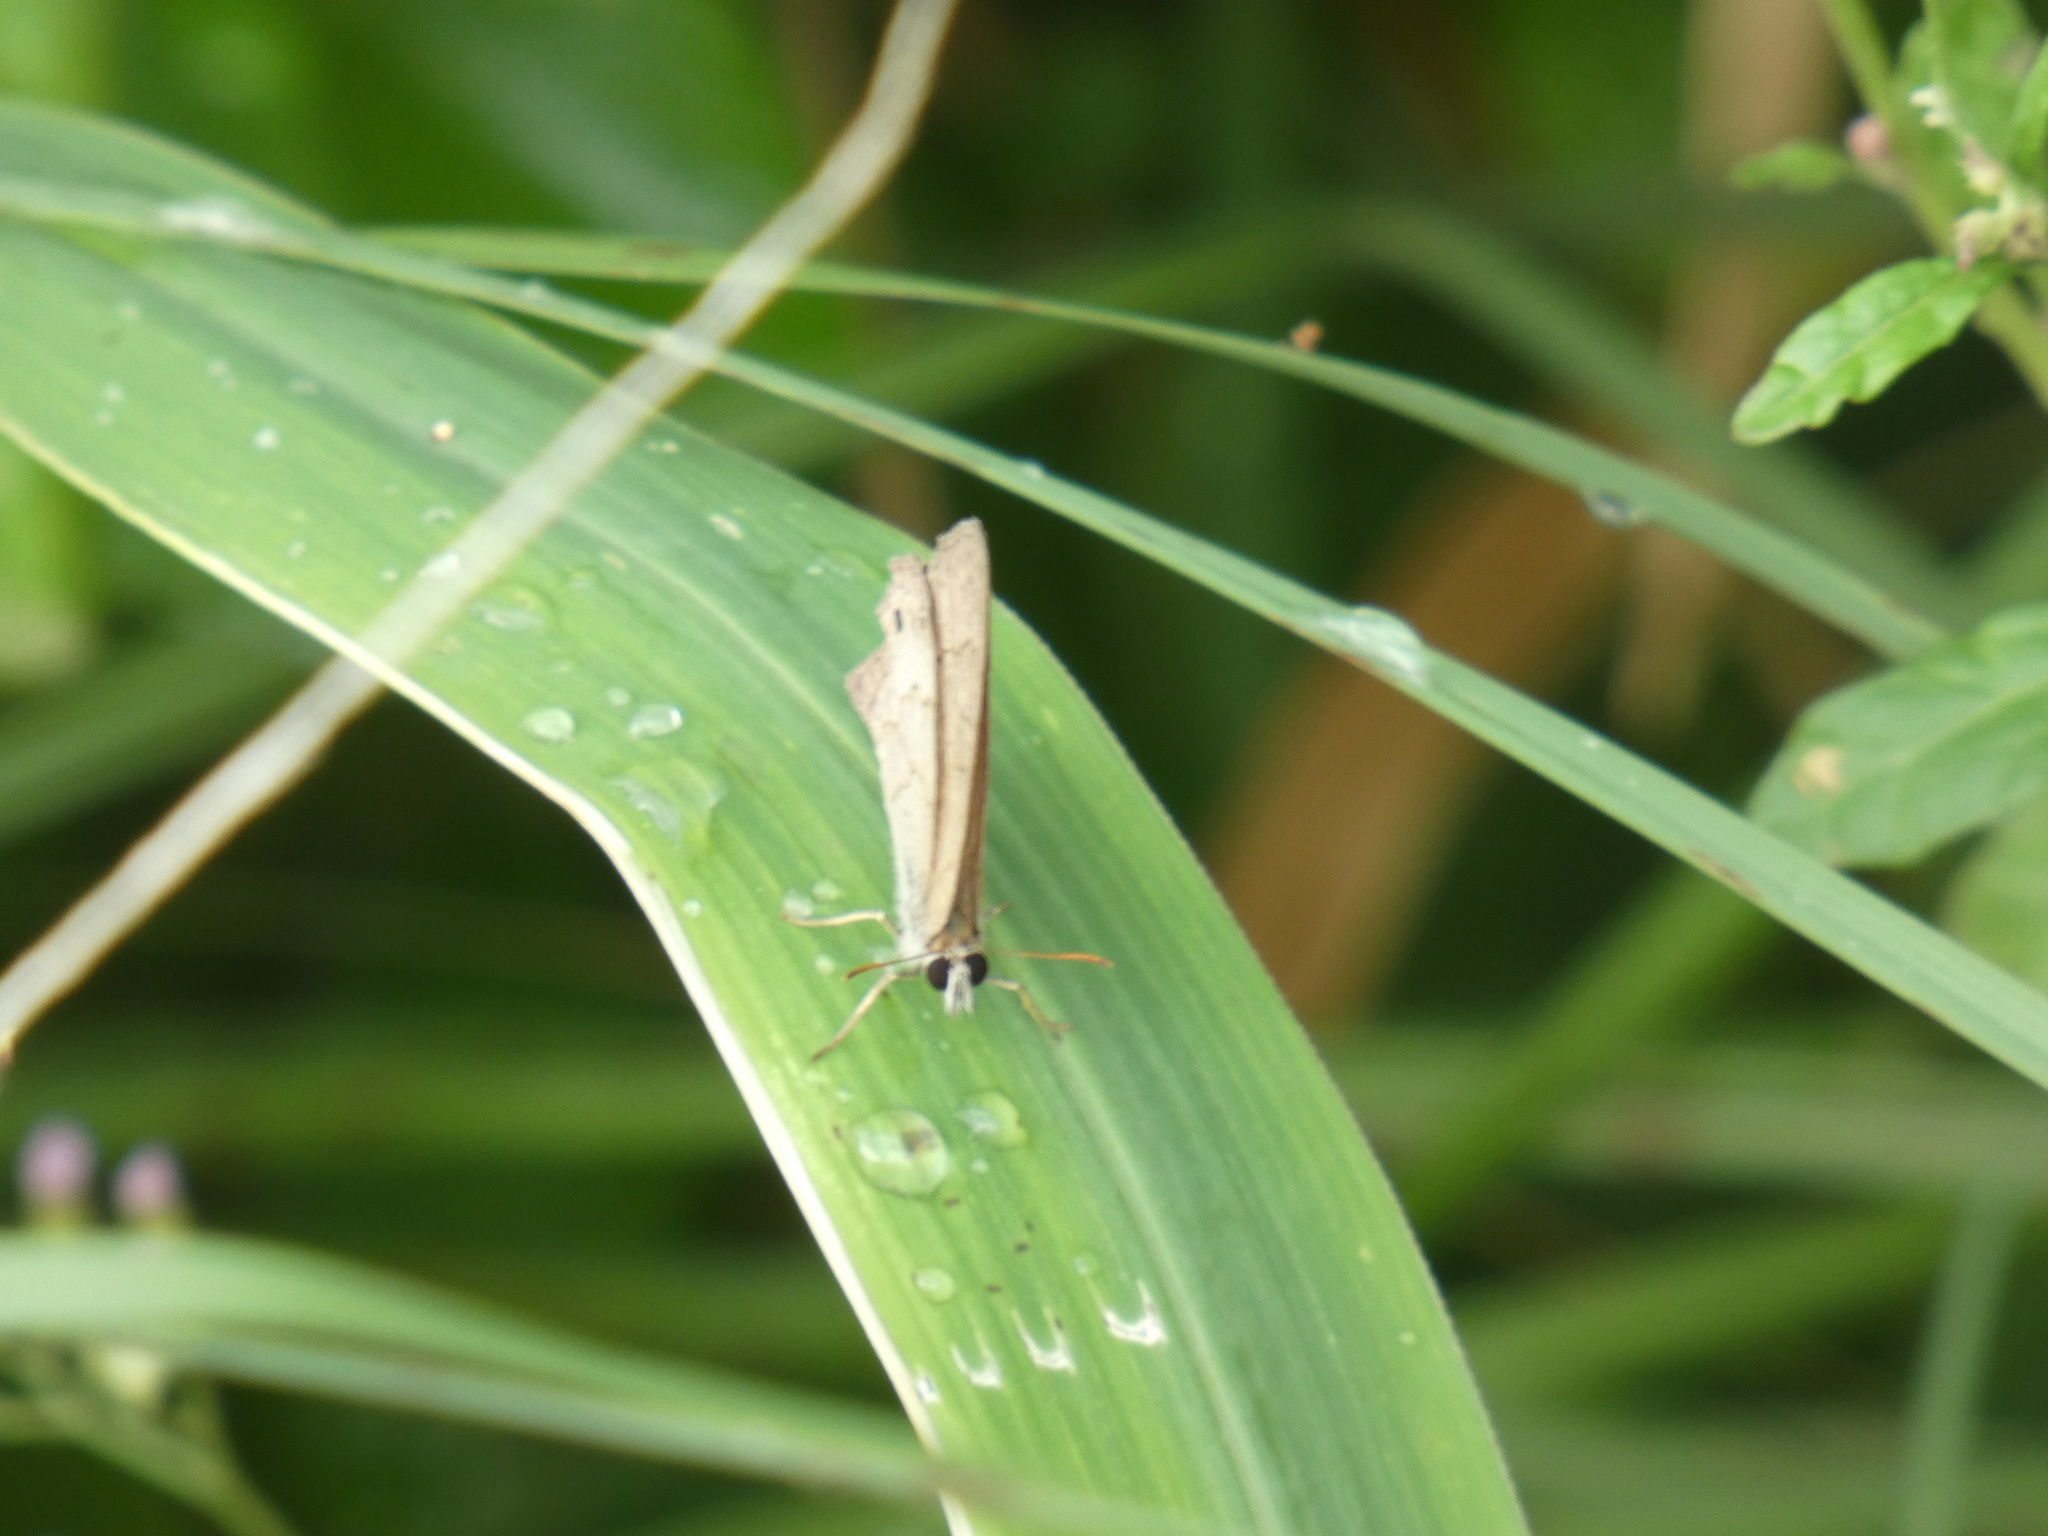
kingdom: Animalia
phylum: Arthropoda
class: Insecta
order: Lepidoptera
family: Nymphalidae
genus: Euptychia
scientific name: Euptychia Cissia eous
